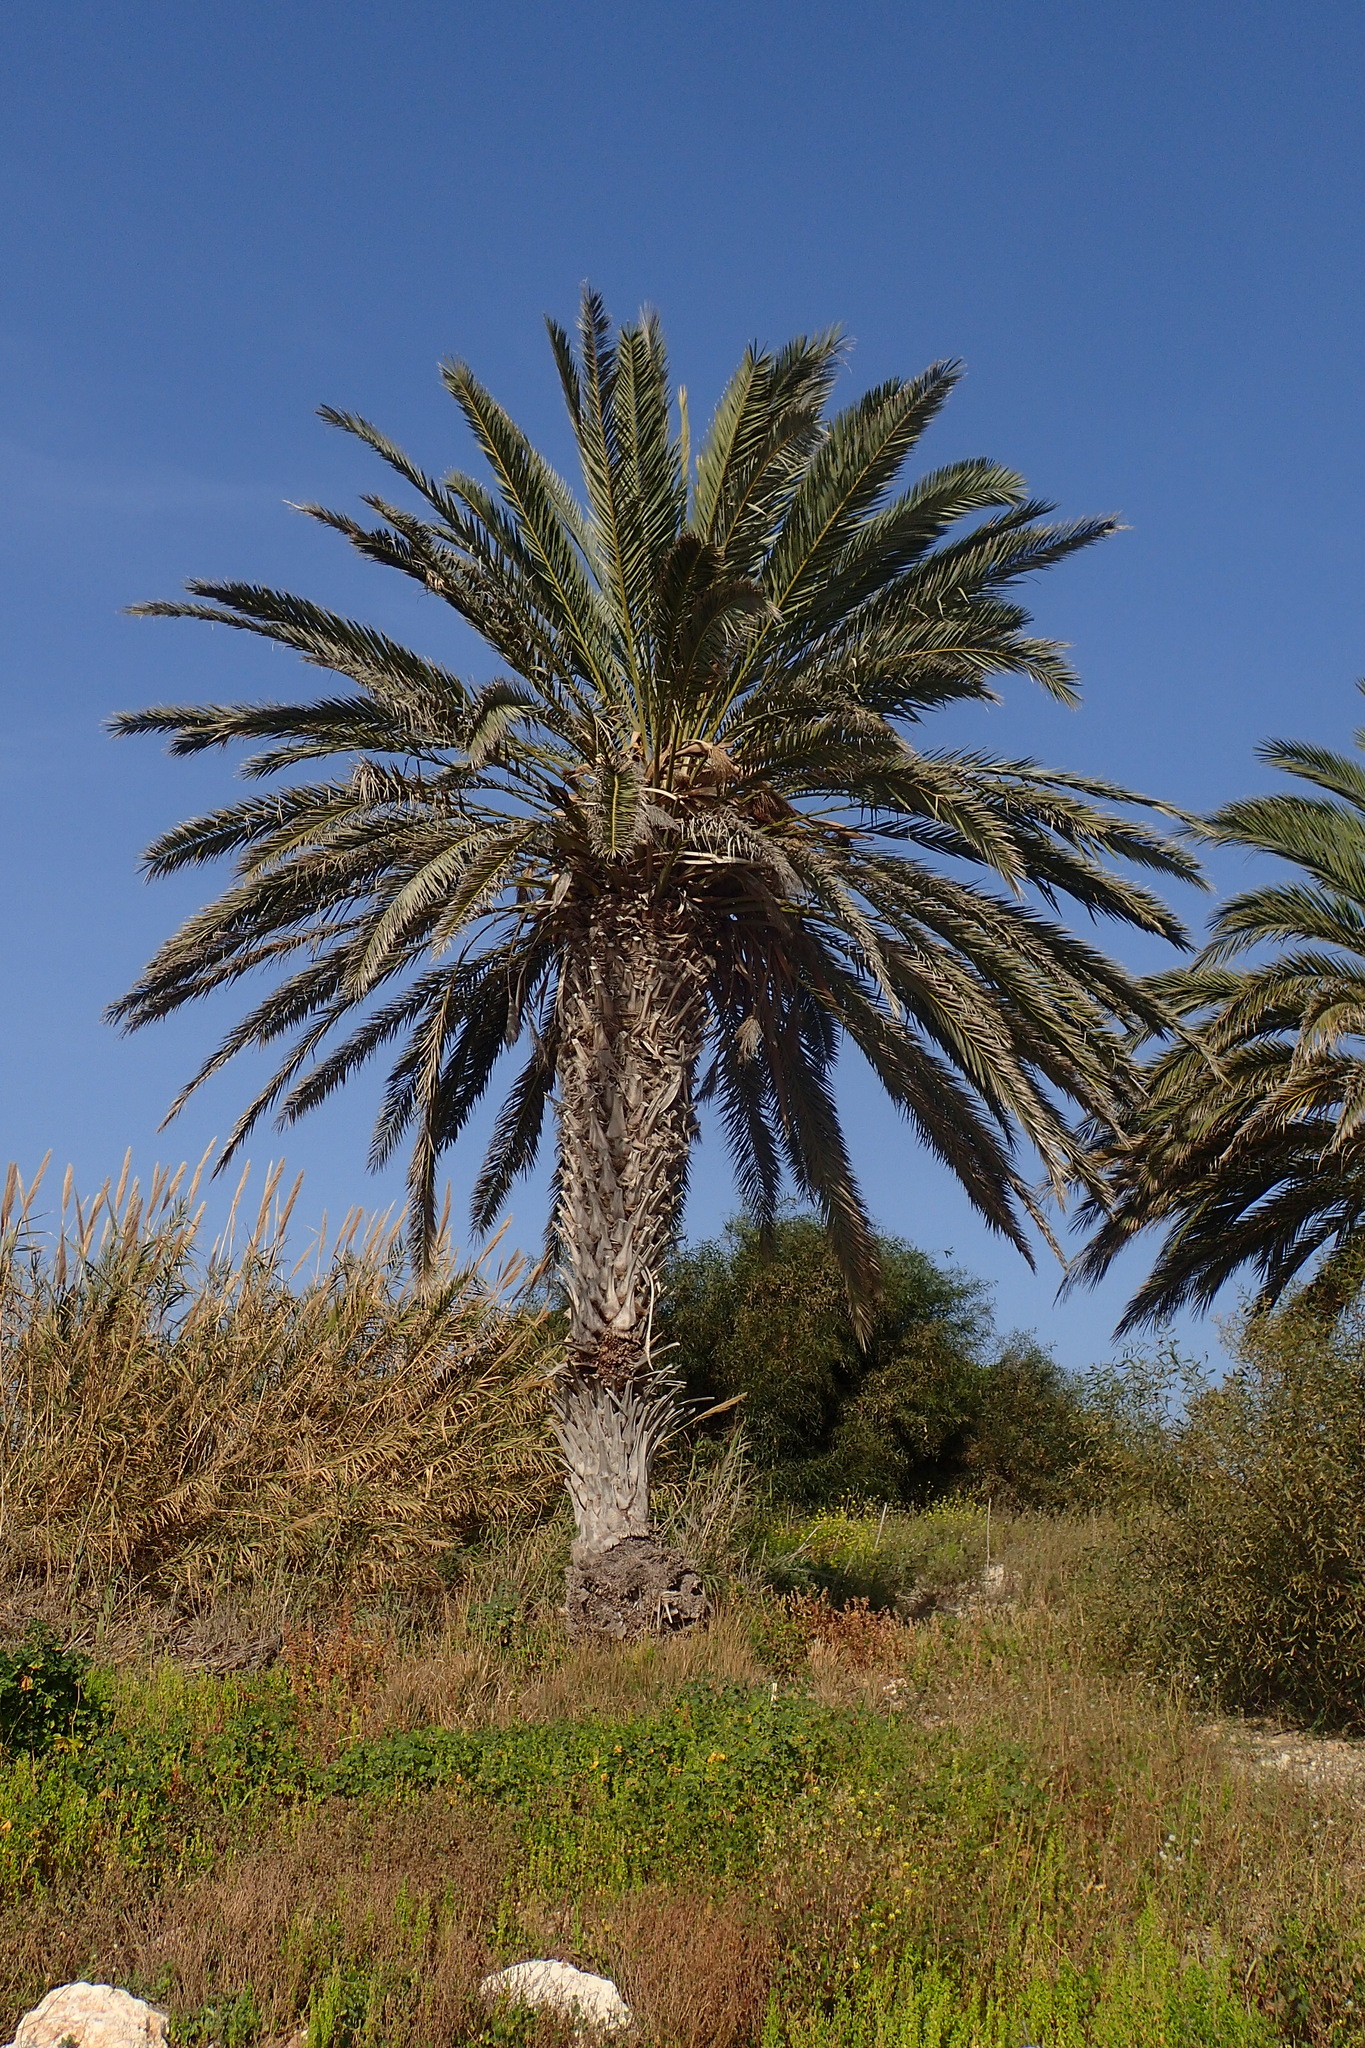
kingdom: Plantae
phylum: Tracheophyta
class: Liliopsida
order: Arecales
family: Arecaceae
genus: Phoenix
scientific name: Phoenix dactylifera
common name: Date palm
